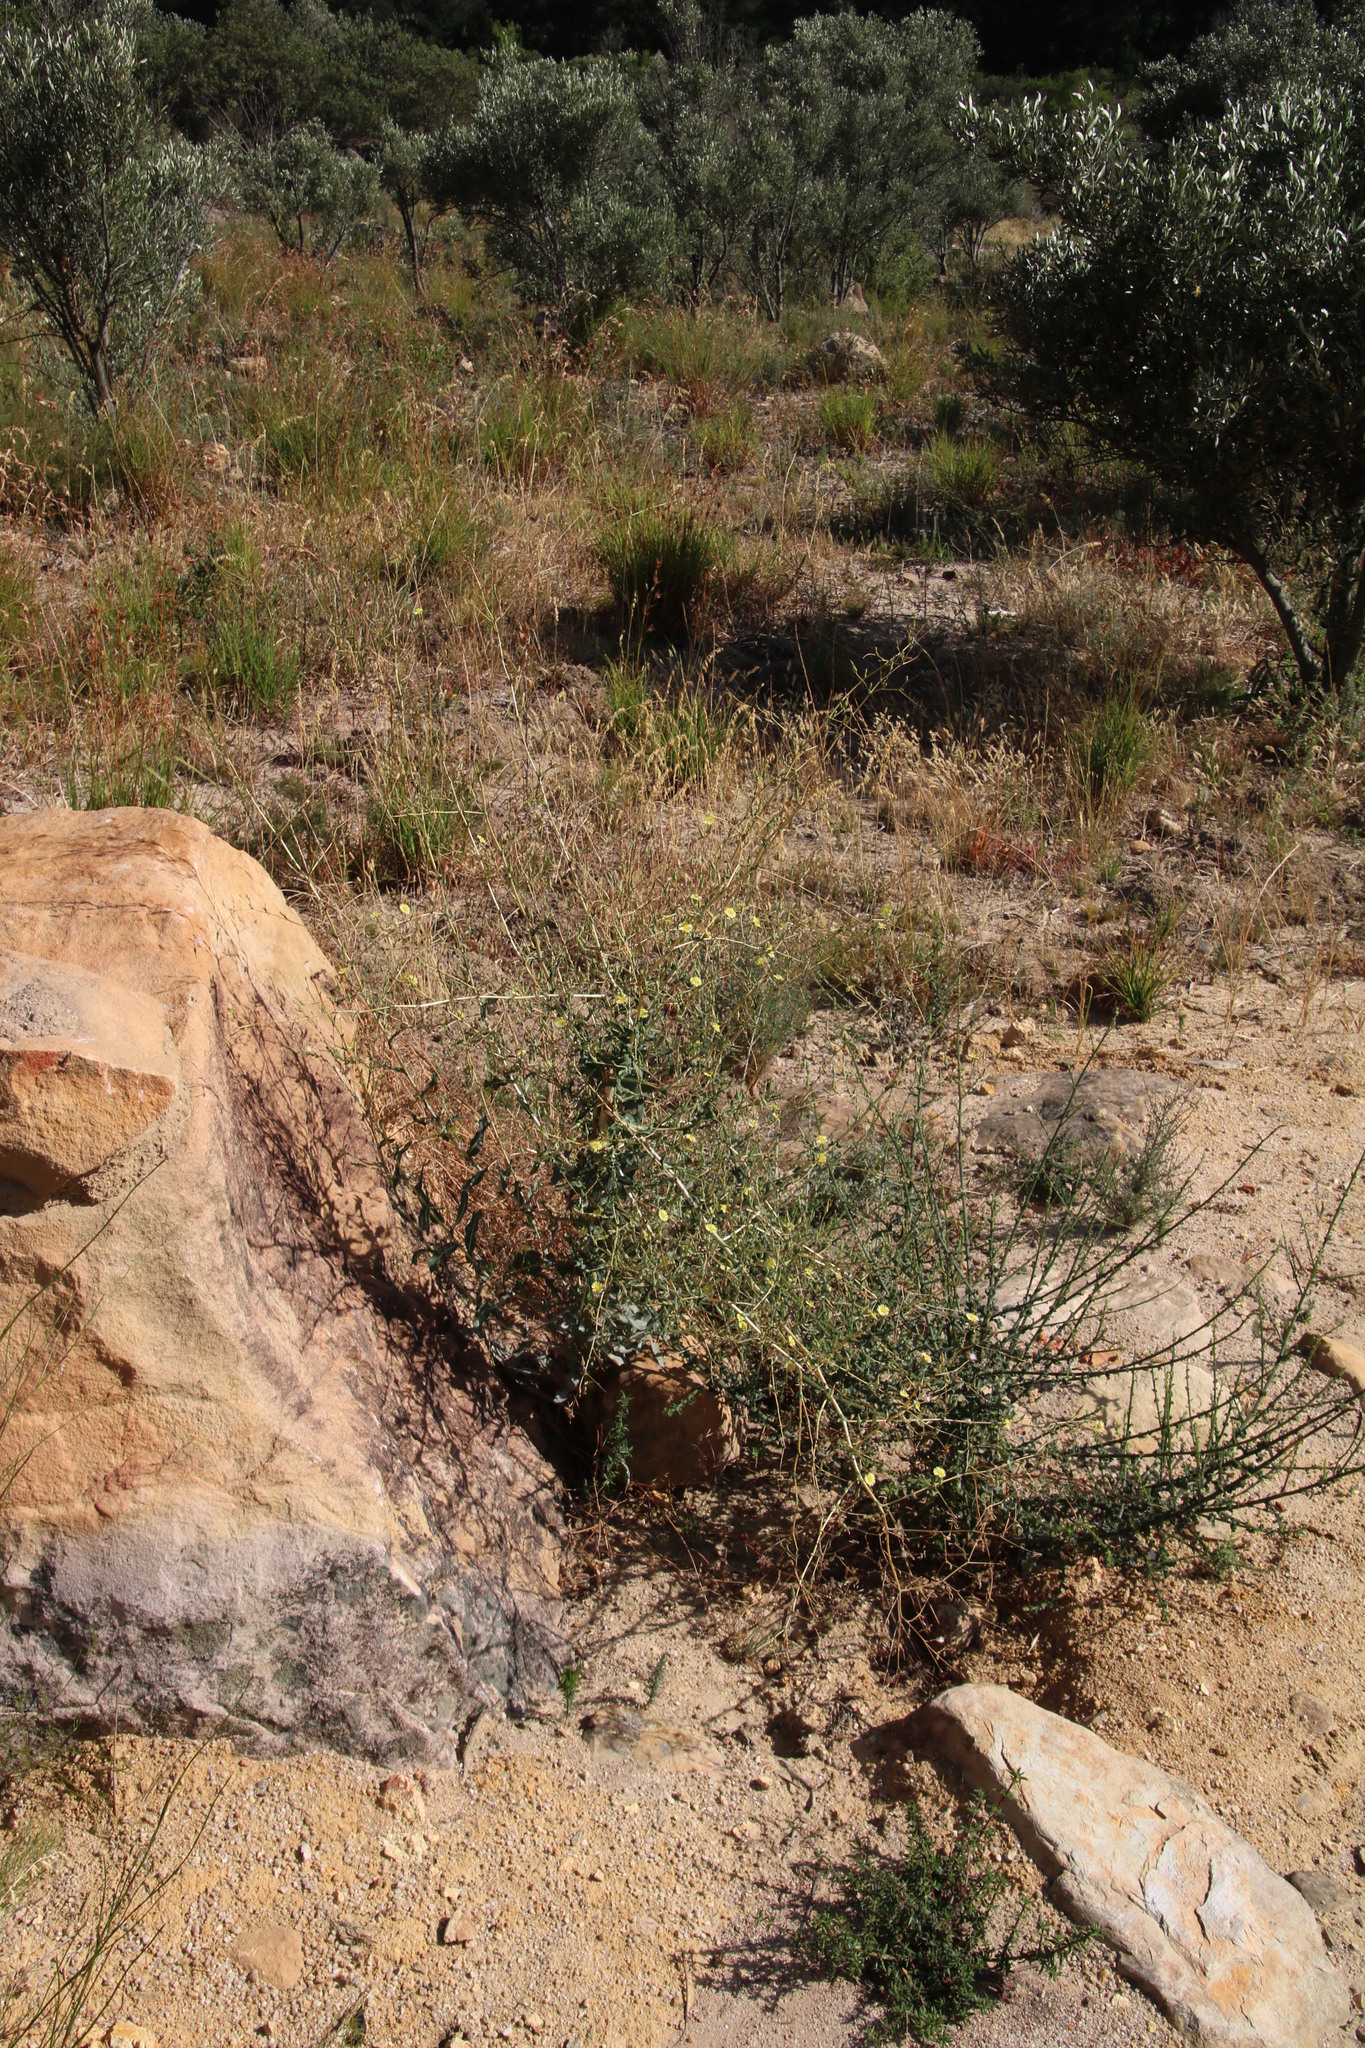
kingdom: Plantae
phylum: Tracheophyta
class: Magnoliopsida
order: Asterales
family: Asteraceae
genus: Lactuca
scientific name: Lactuca serriola
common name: Prickly lettuce
